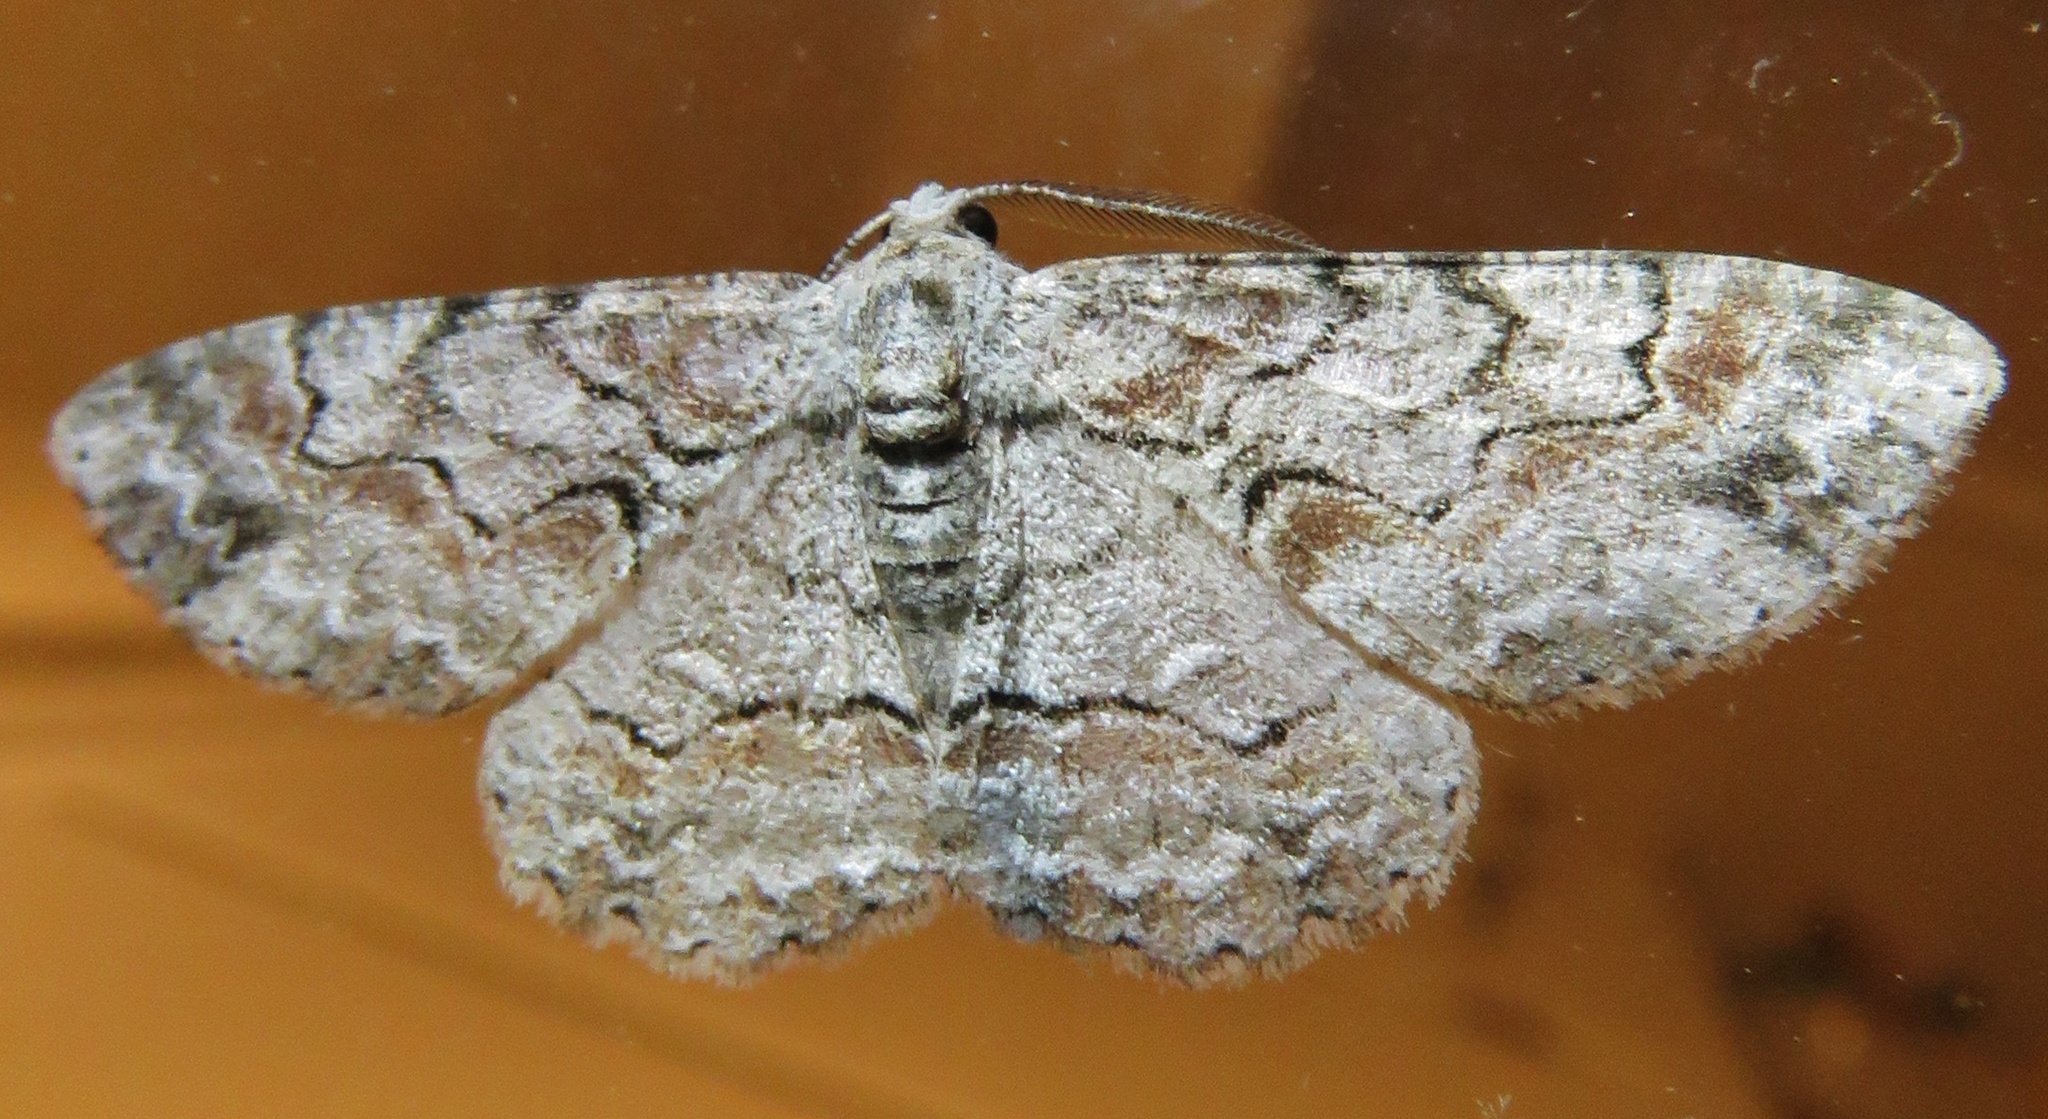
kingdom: Animalia
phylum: Arthropoda
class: Insecta
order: Lepidoptera
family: Geometridae
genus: Iridopsis
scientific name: Iridopsis defectaria
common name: Brown-shaded gray
